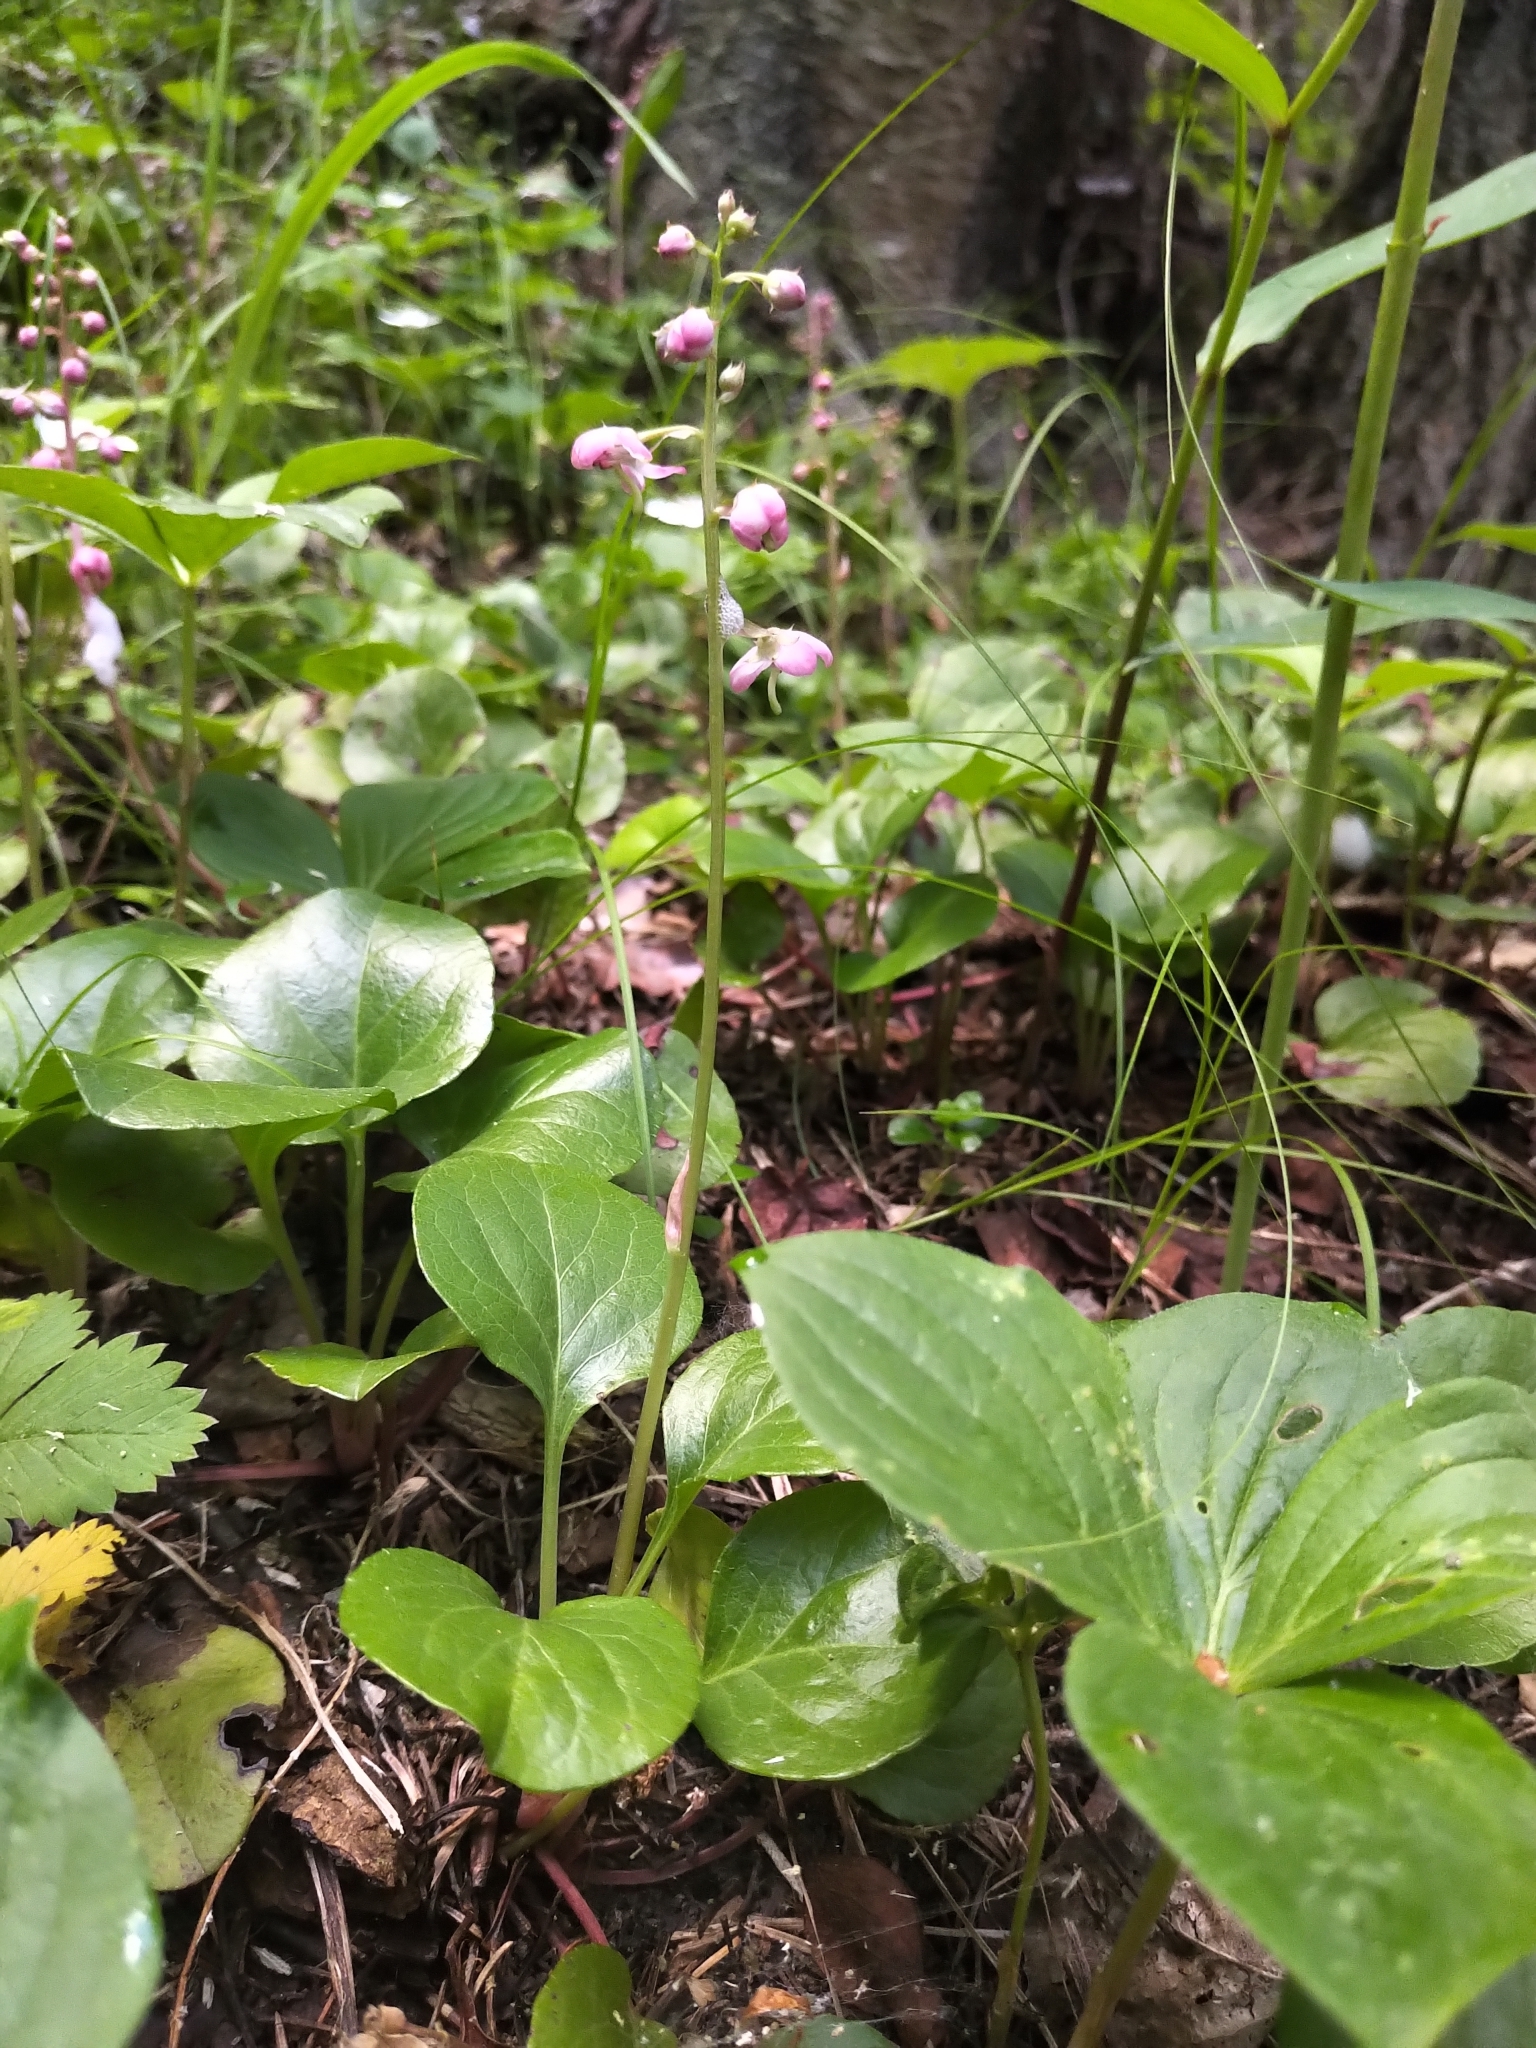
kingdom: Plantae
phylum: Tracheophyta
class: Magnoliopsida
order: Ericales
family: Ericaceae
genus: Pyrola
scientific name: Pyrola asarifolia
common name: Bog wintergreen
